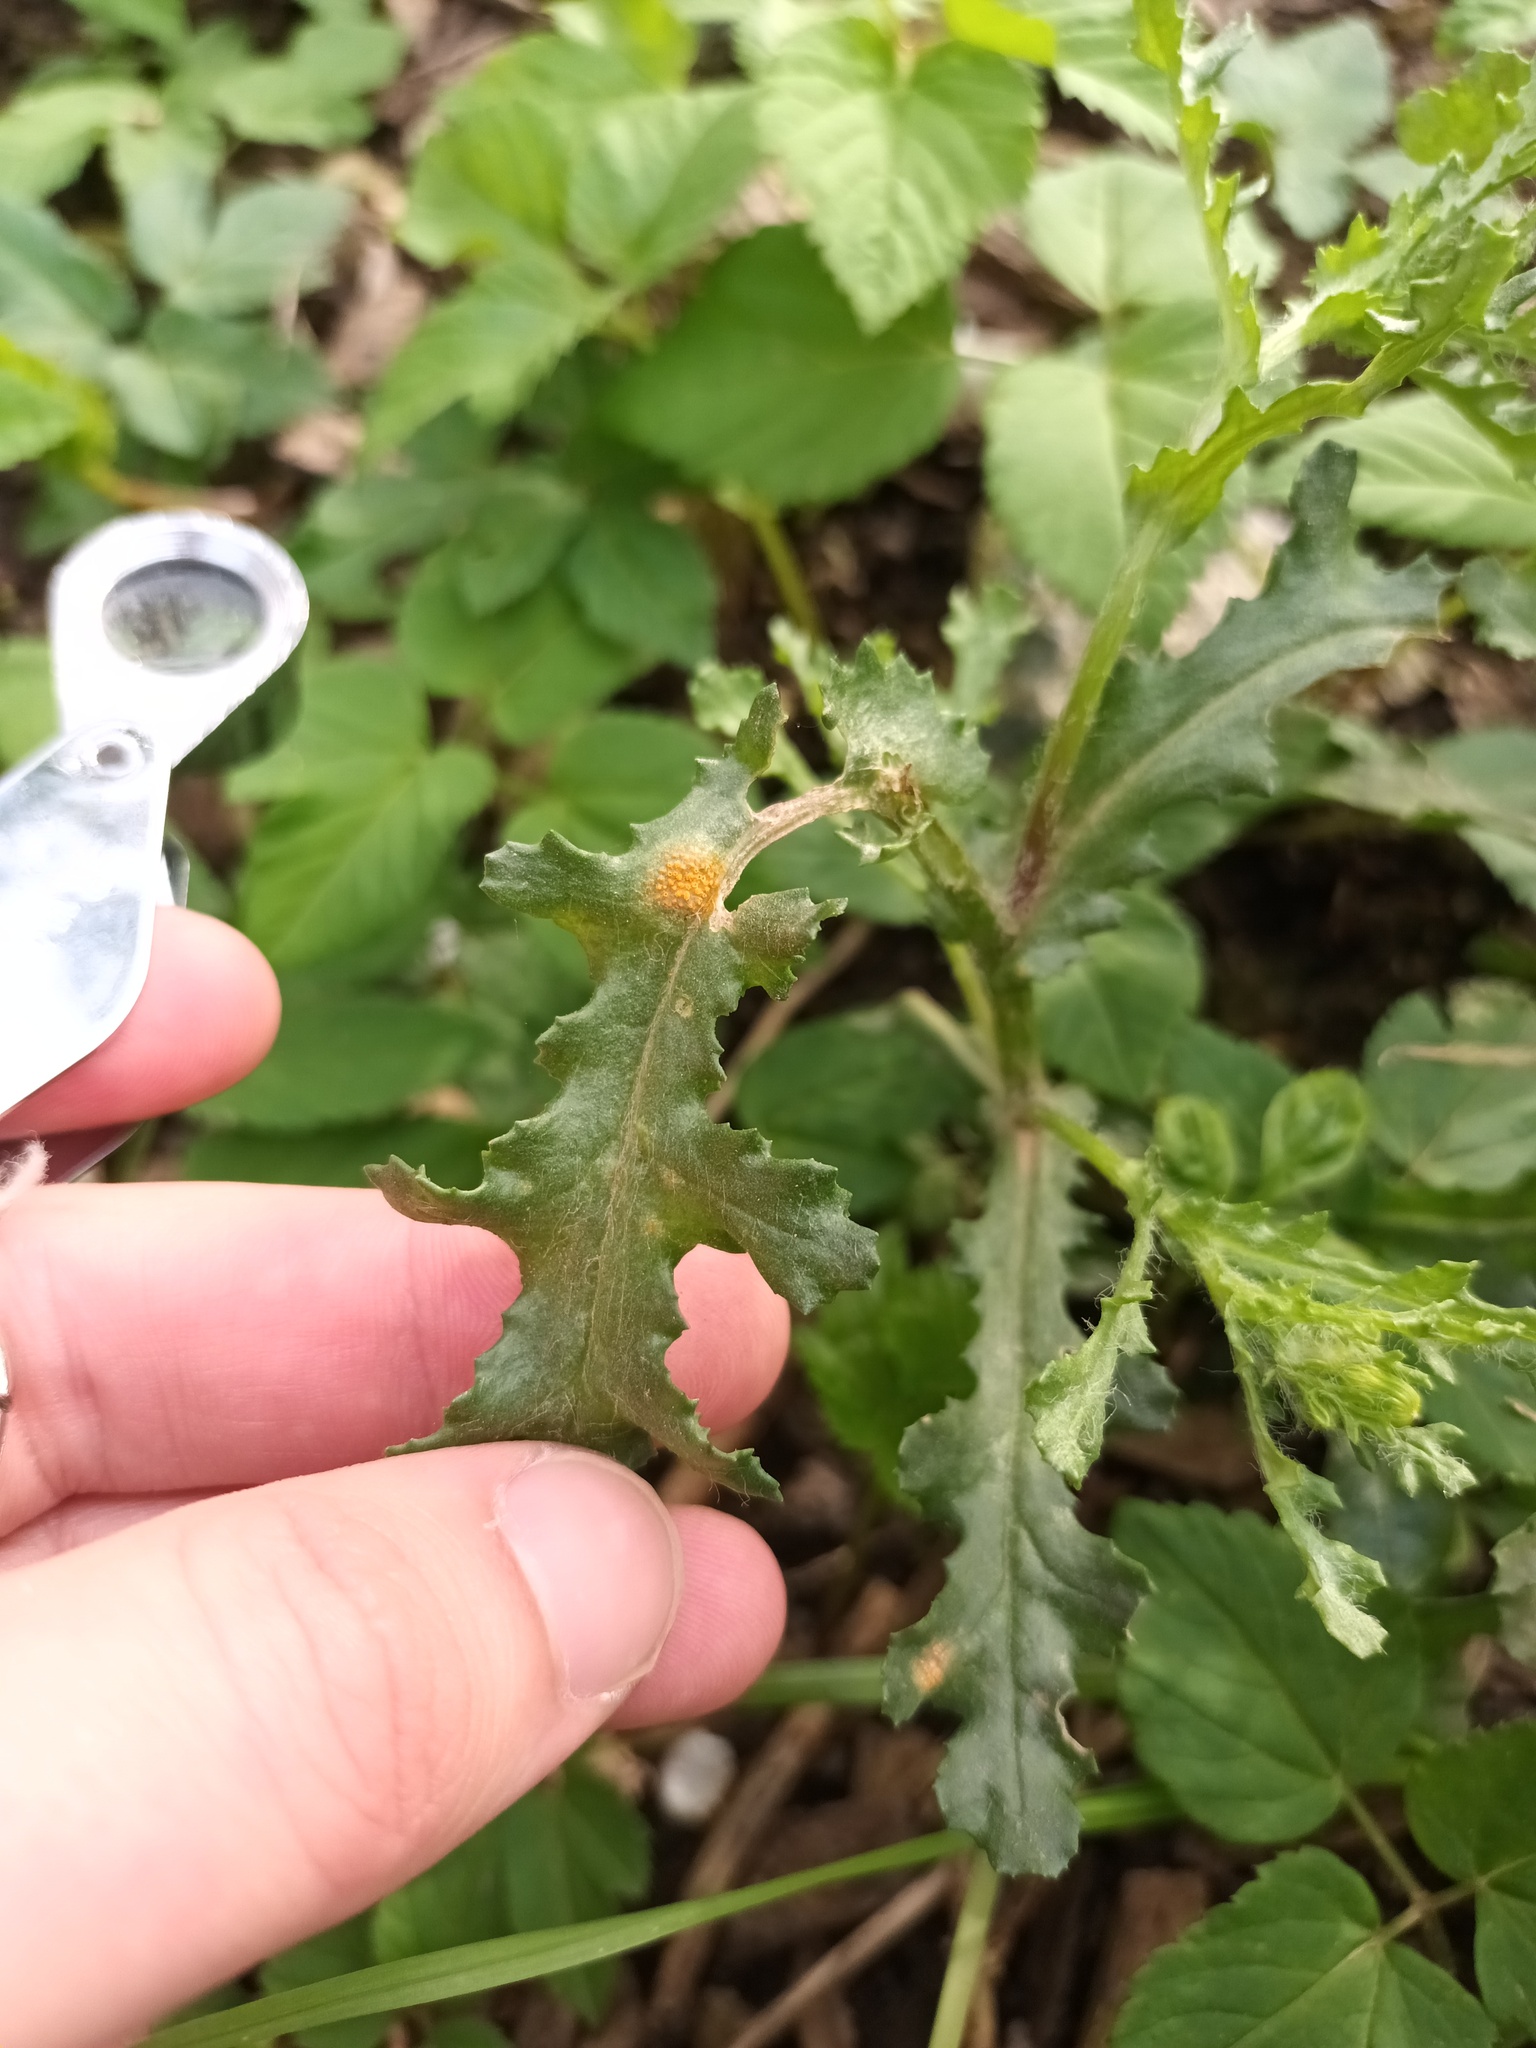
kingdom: Fungi
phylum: Basidiomycota
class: Pucciniomycetes
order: Pucciniales
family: Pucciniaceae
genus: Puccinia
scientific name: Puccinia lagenophorae
